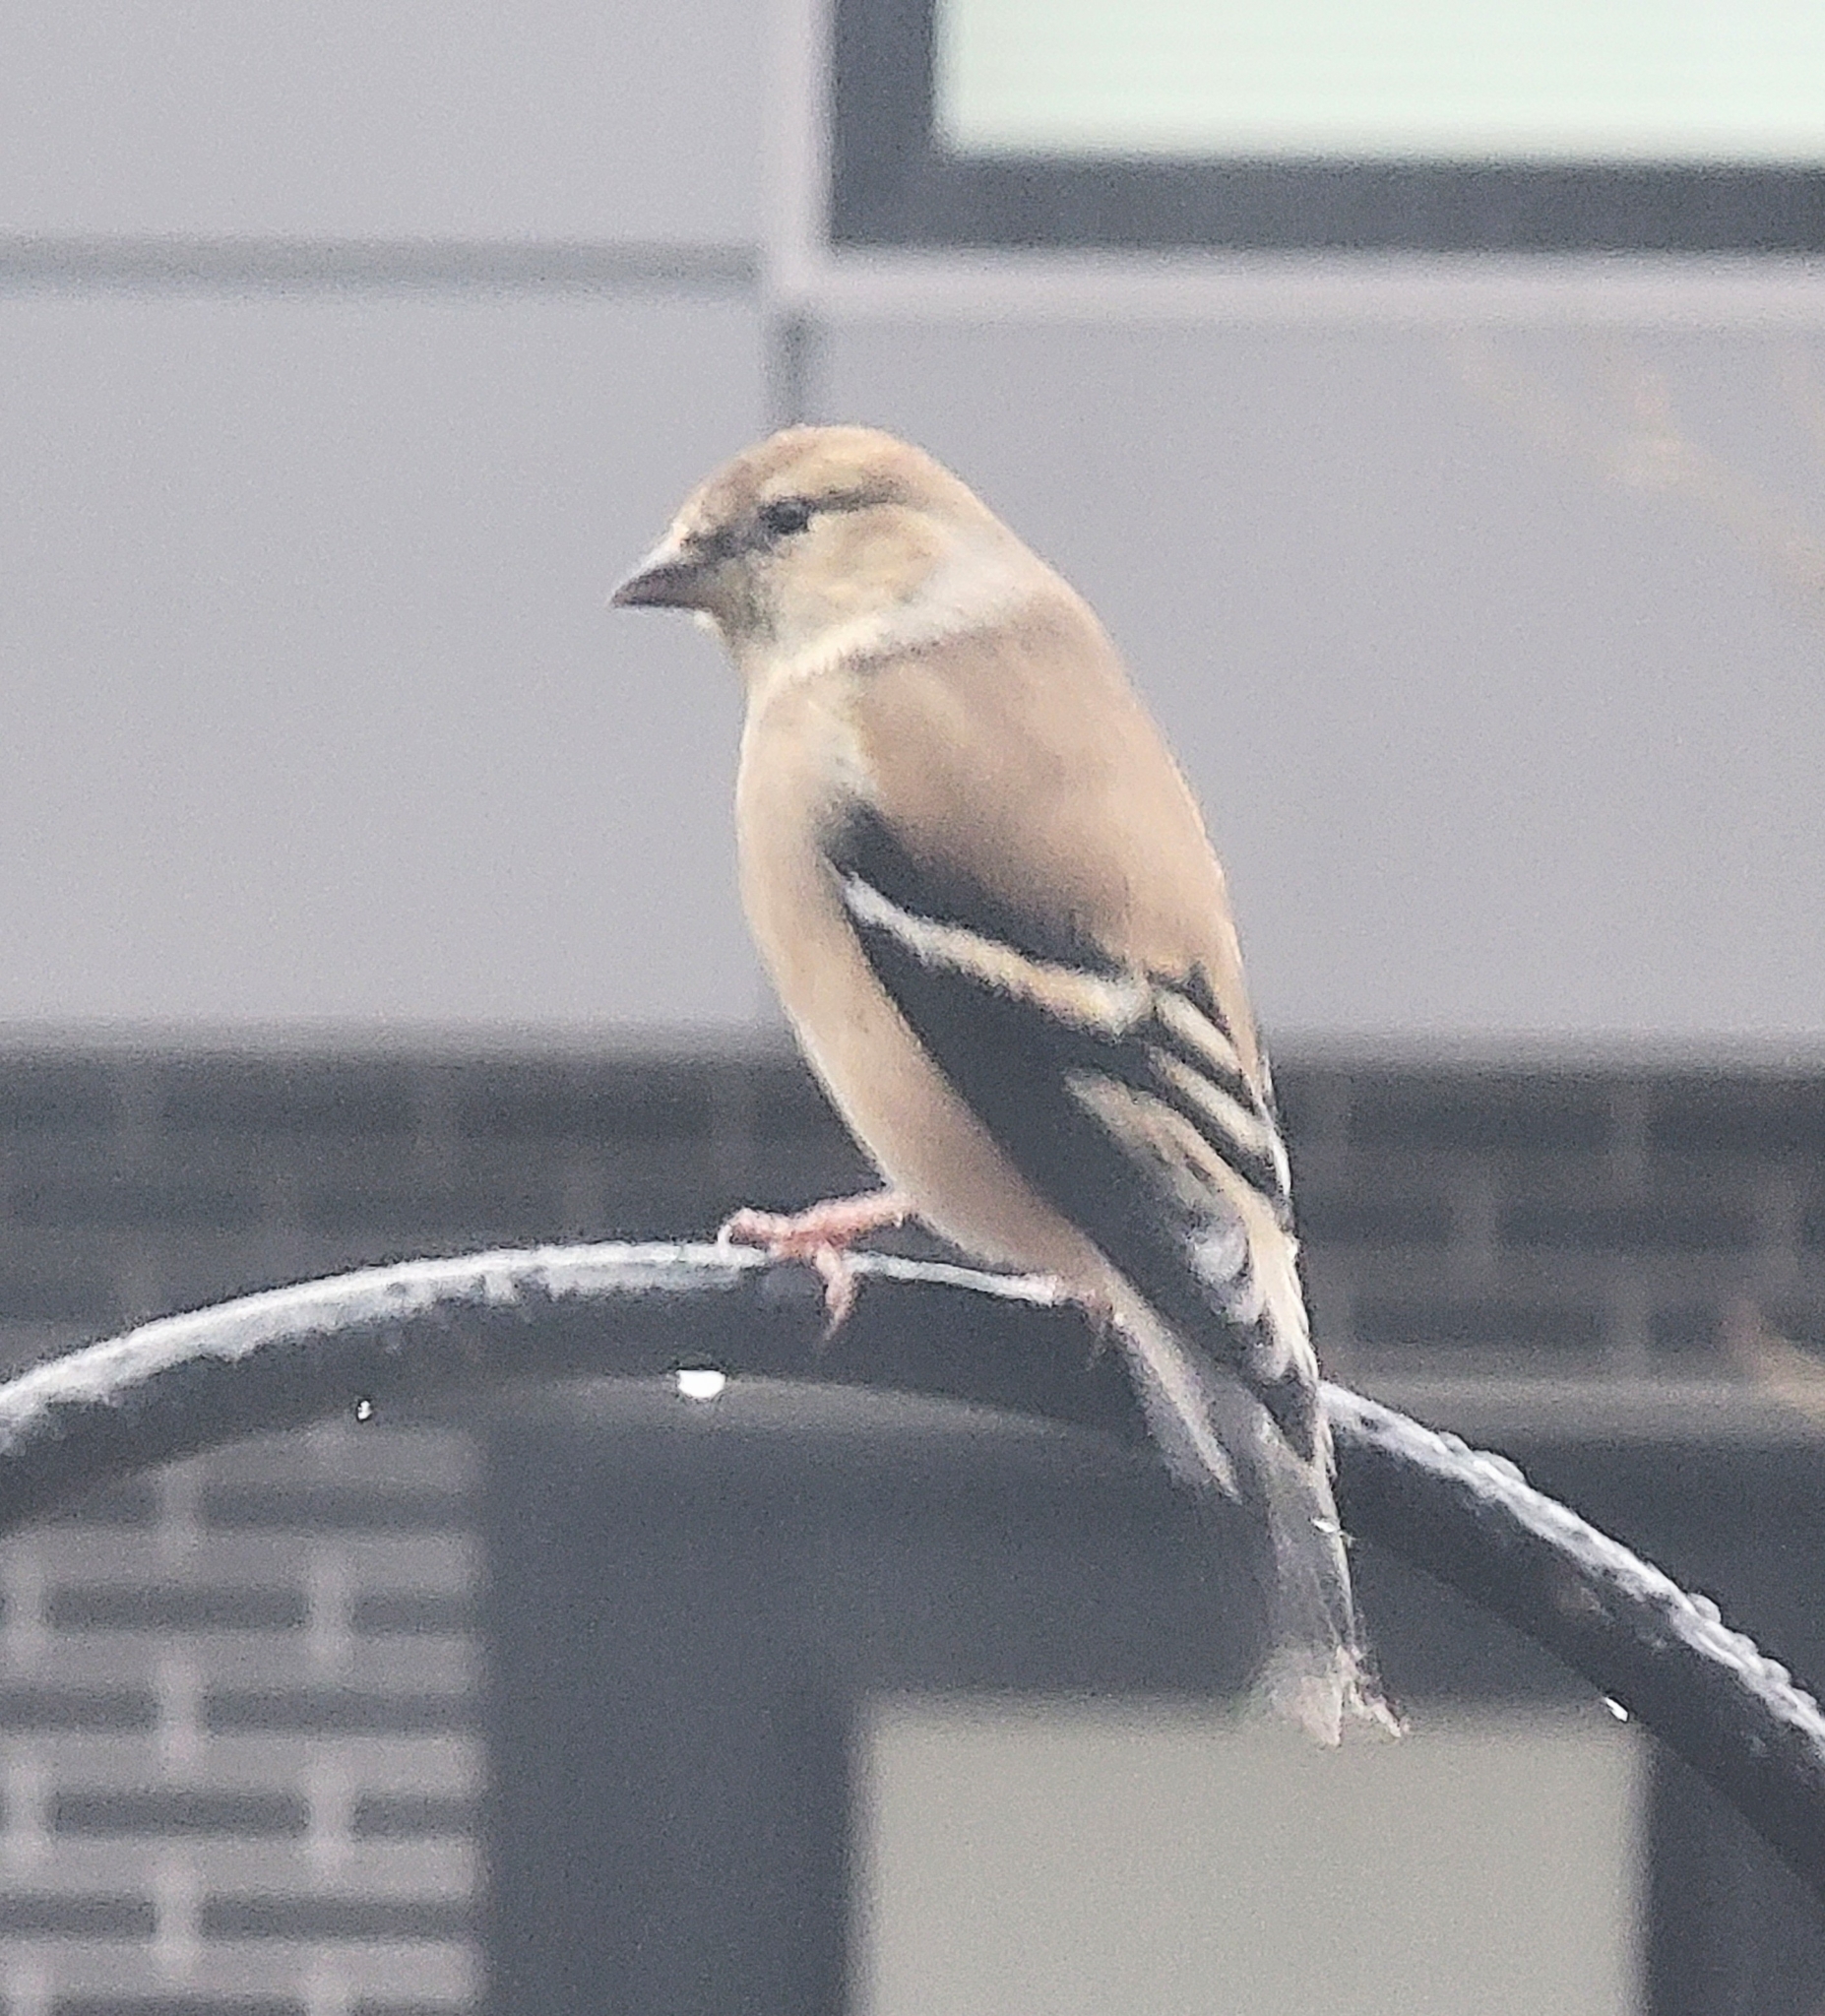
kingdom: Animalia
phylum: Chordata
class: Aves
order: Passeriformes
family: Fringillidae
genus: Spinus
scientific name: Spinus tristis
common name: American goldfinch
